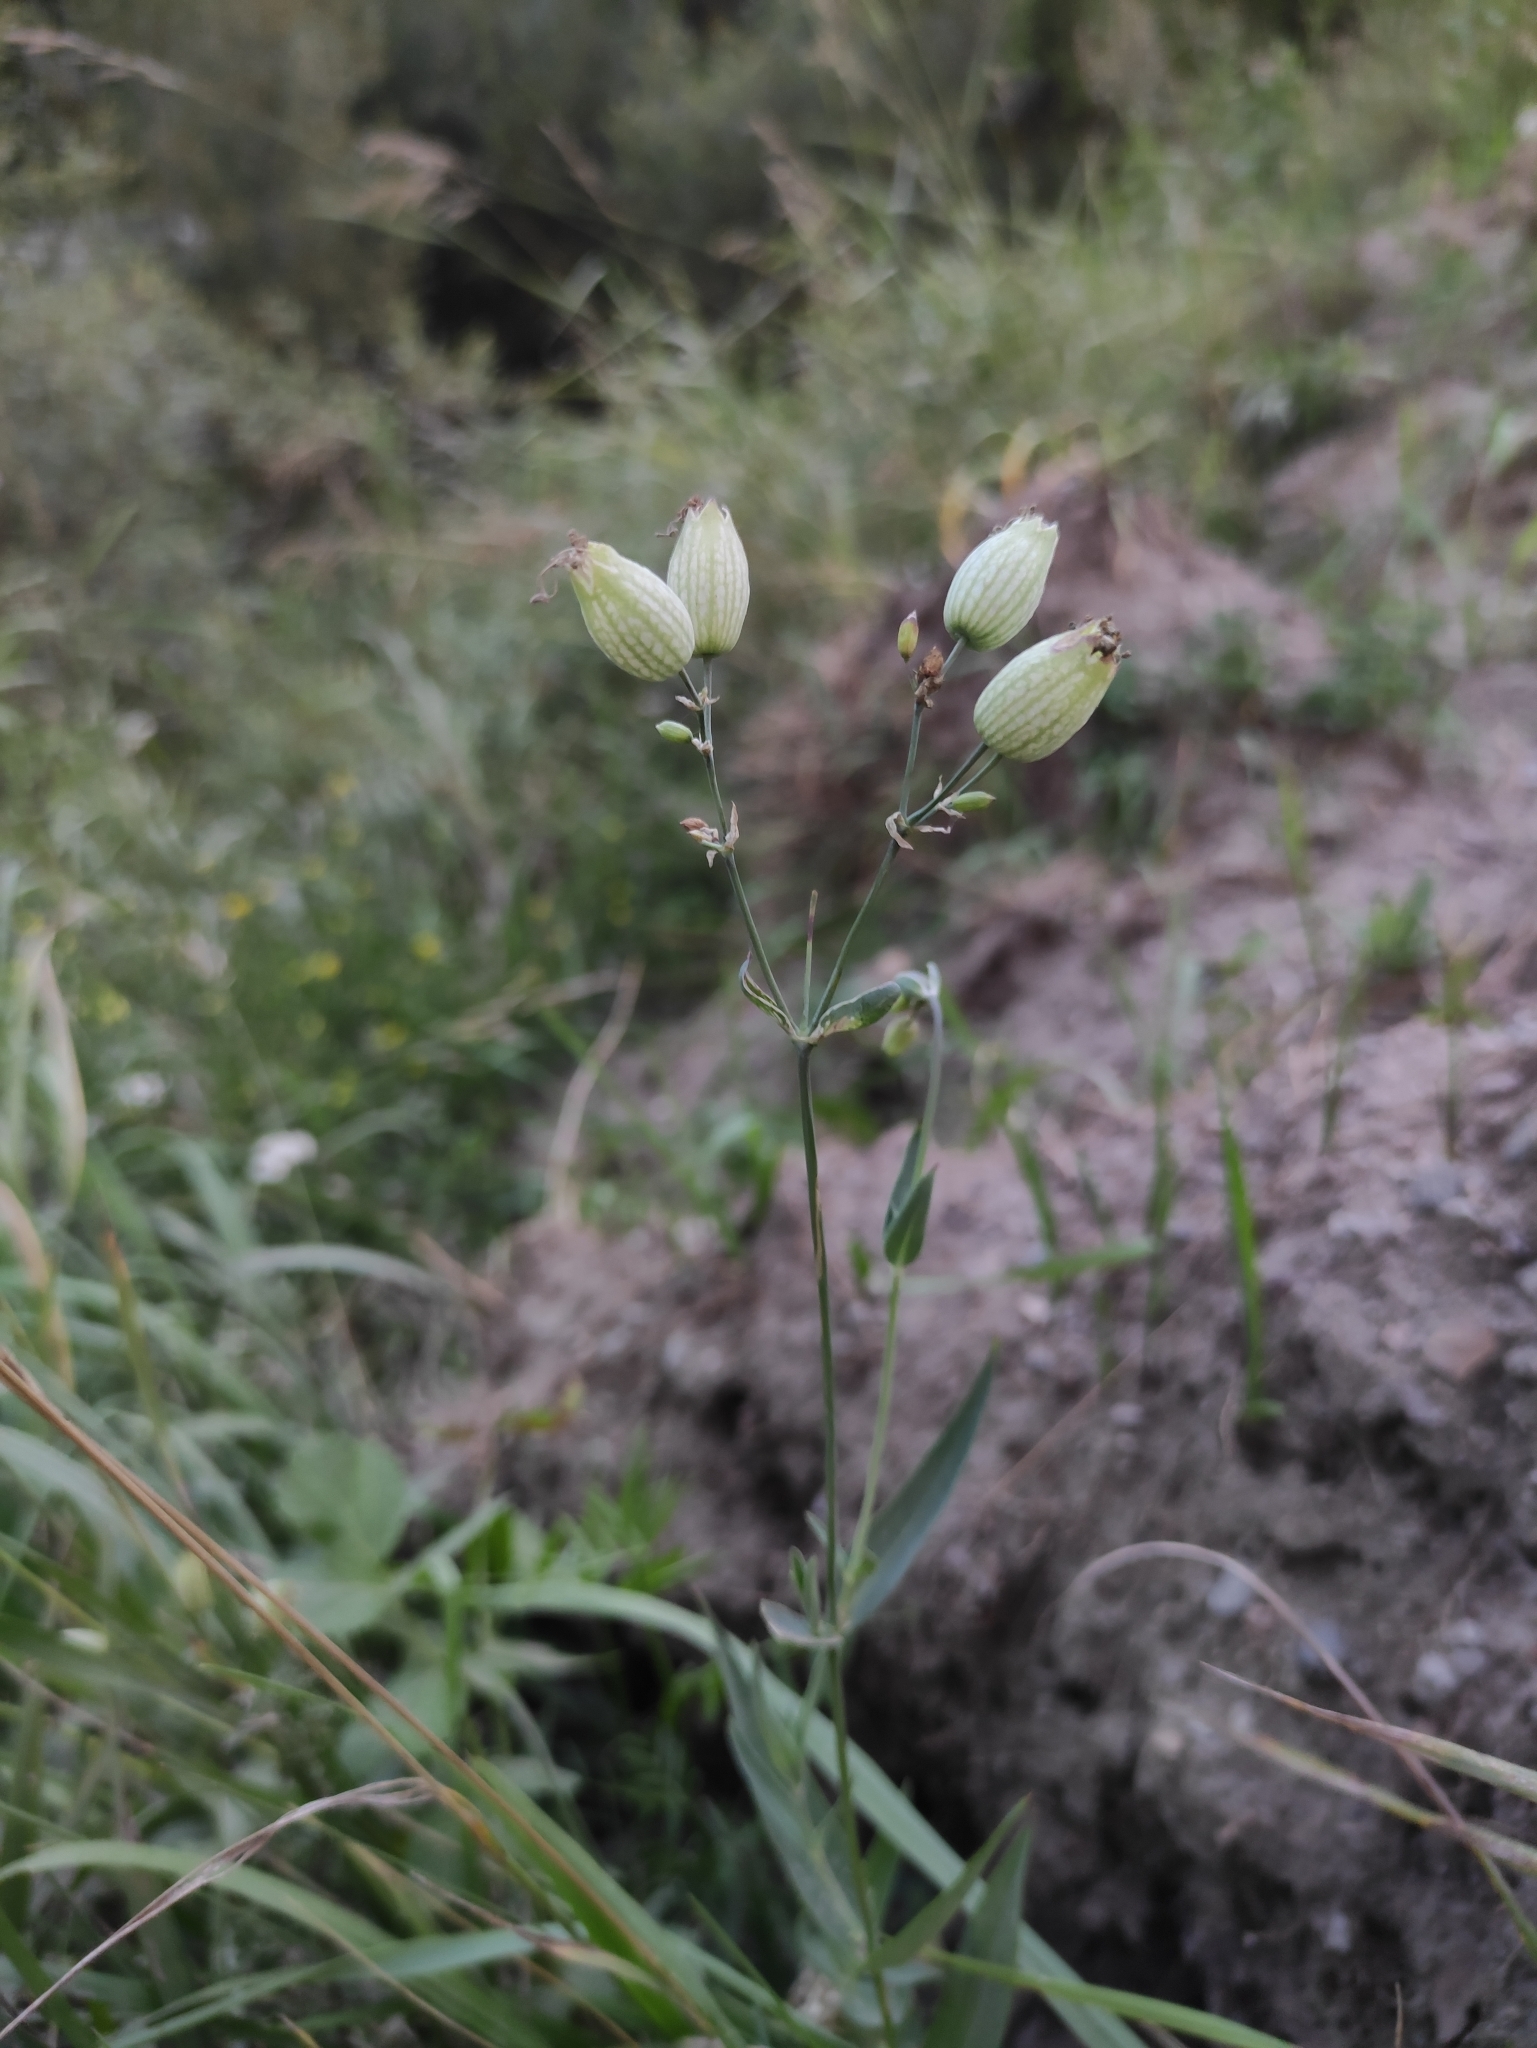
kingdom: Plantae
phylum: Tracheophyta
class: Magnoliopsida
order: Caryophyllales
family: Caryophyllaceae
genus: Silene
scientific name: Silene vulgaris
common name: Bladder campion
